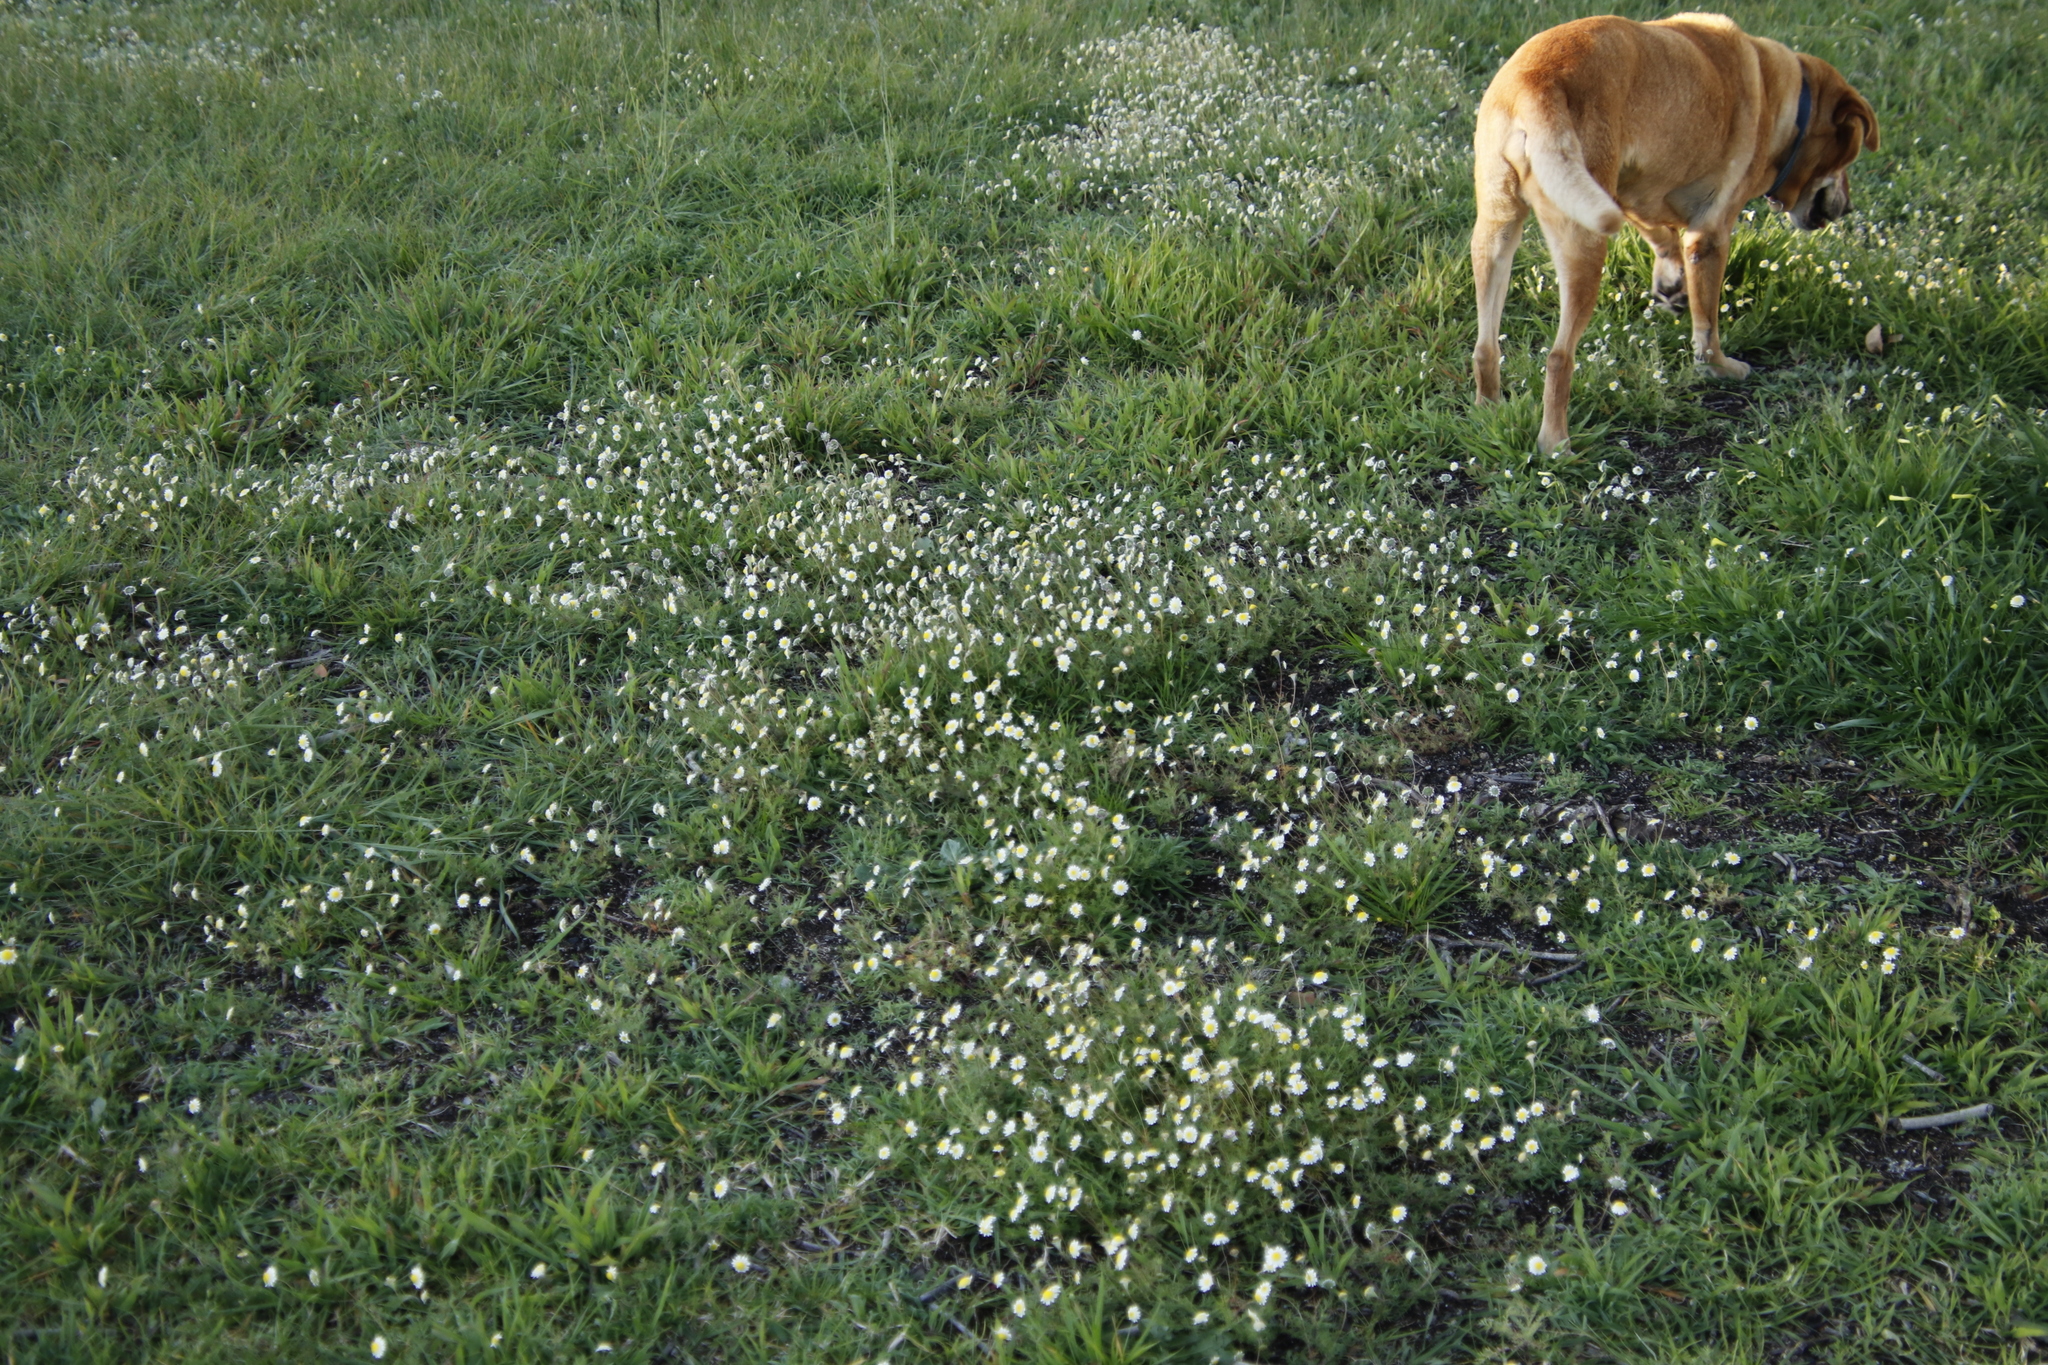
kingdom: Plantae
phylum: Tracheophyta
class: Magnoliopsida
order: Asterales
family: Asteraceae
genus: Cotula
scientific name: Cotula turbinata
